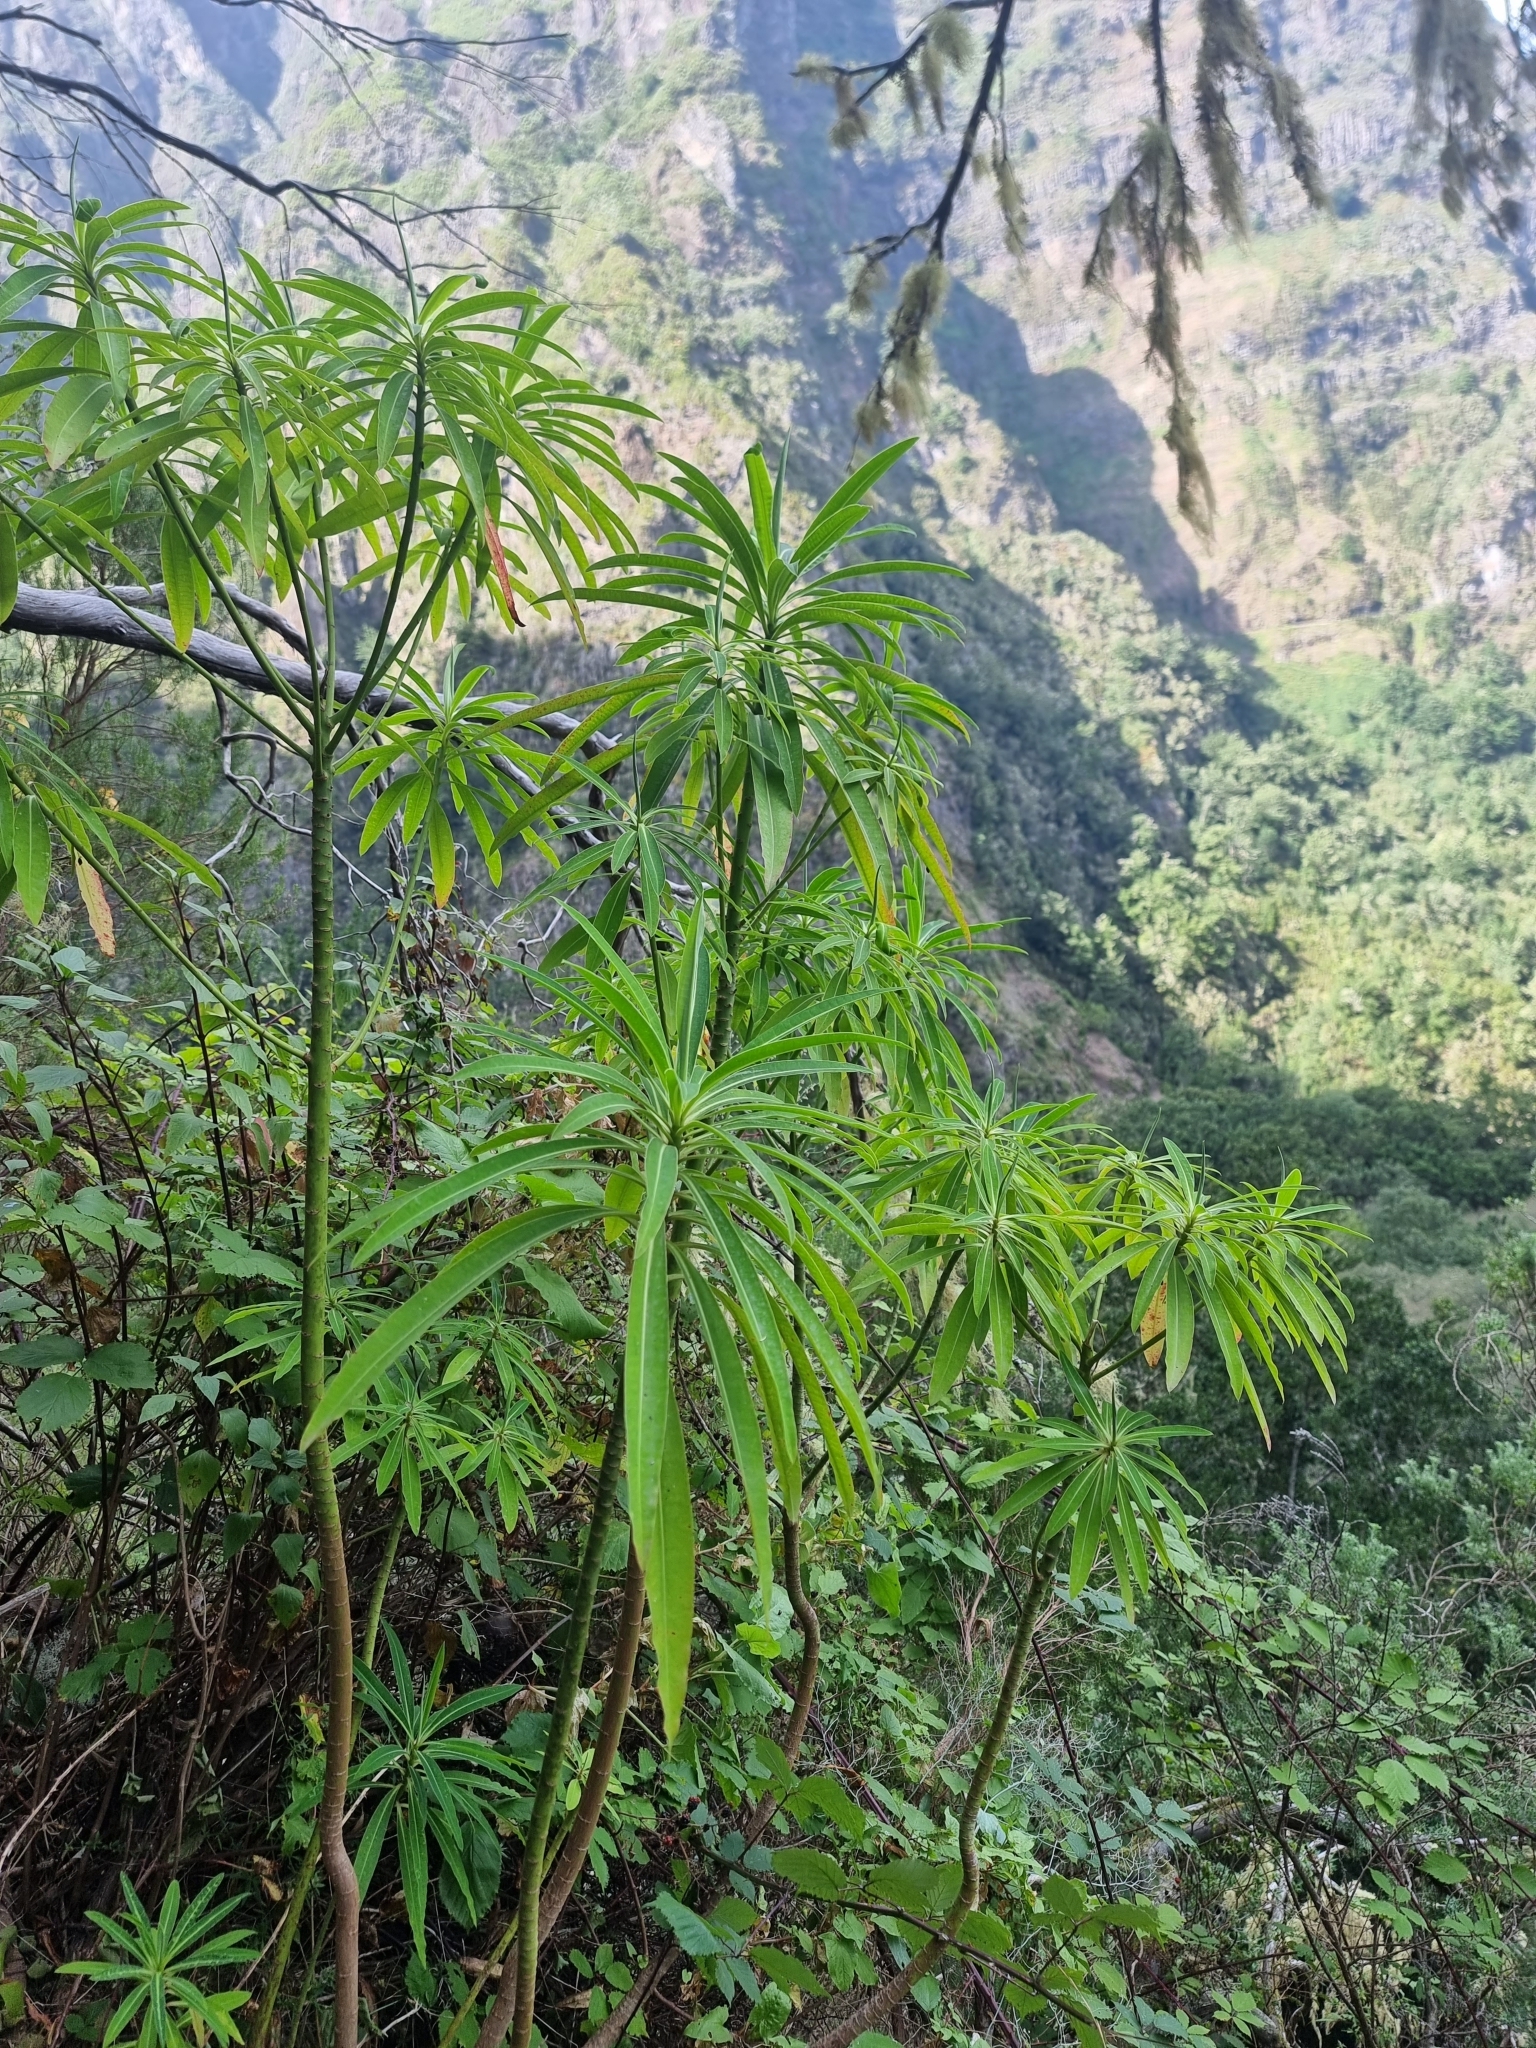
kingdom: Plantae
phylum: Tracheophyta
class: Magnoliopsida
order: Malpighiales
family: Euphorbiaceae
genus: Euphorbia
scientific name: Euphorbia mellifera
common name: Canary spurge
